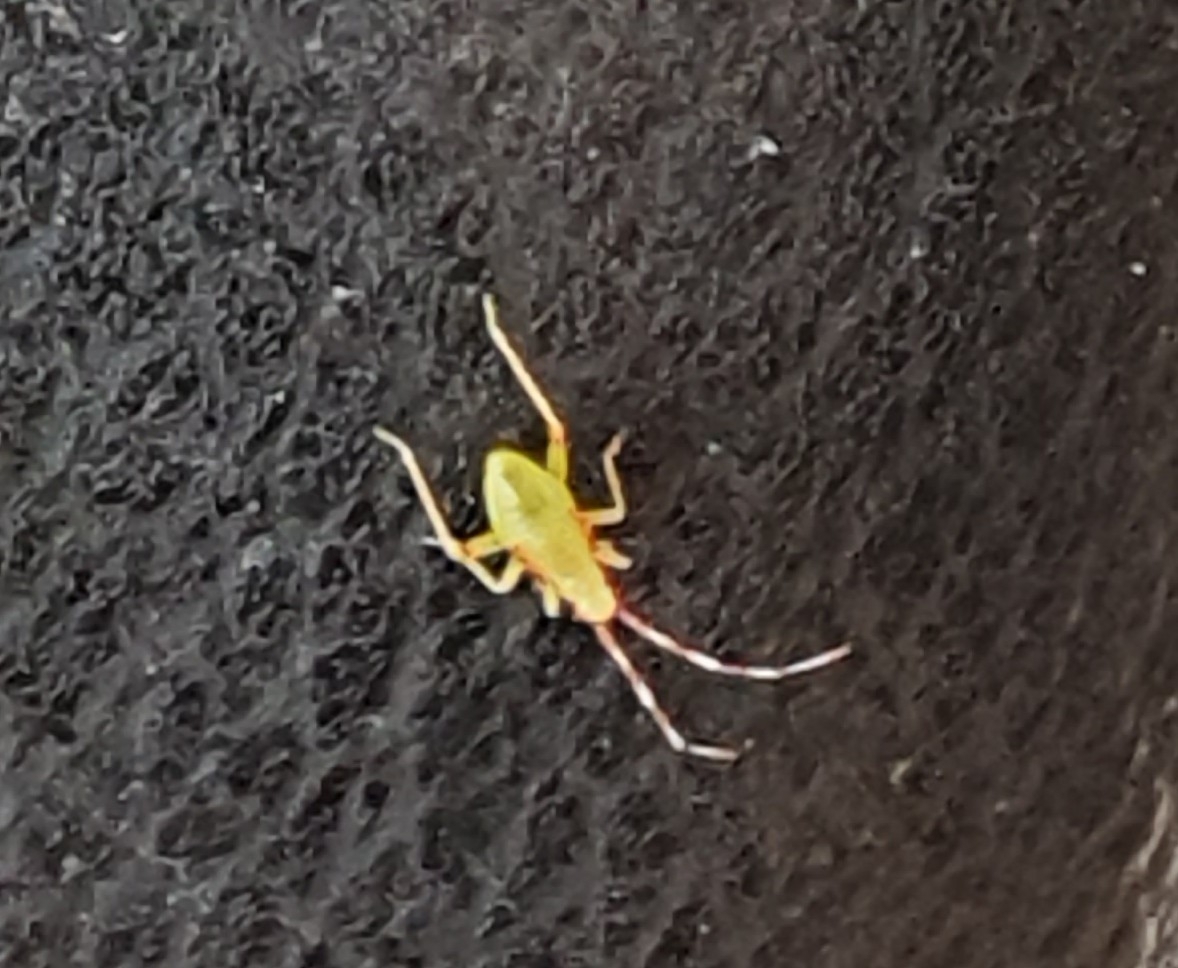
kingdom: Animalia
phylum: Arthropoda
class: Insecta
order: Hemiptera
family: Miridae
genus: Campyloneura
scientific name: Campyloneura virgula
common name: Predatory bug
